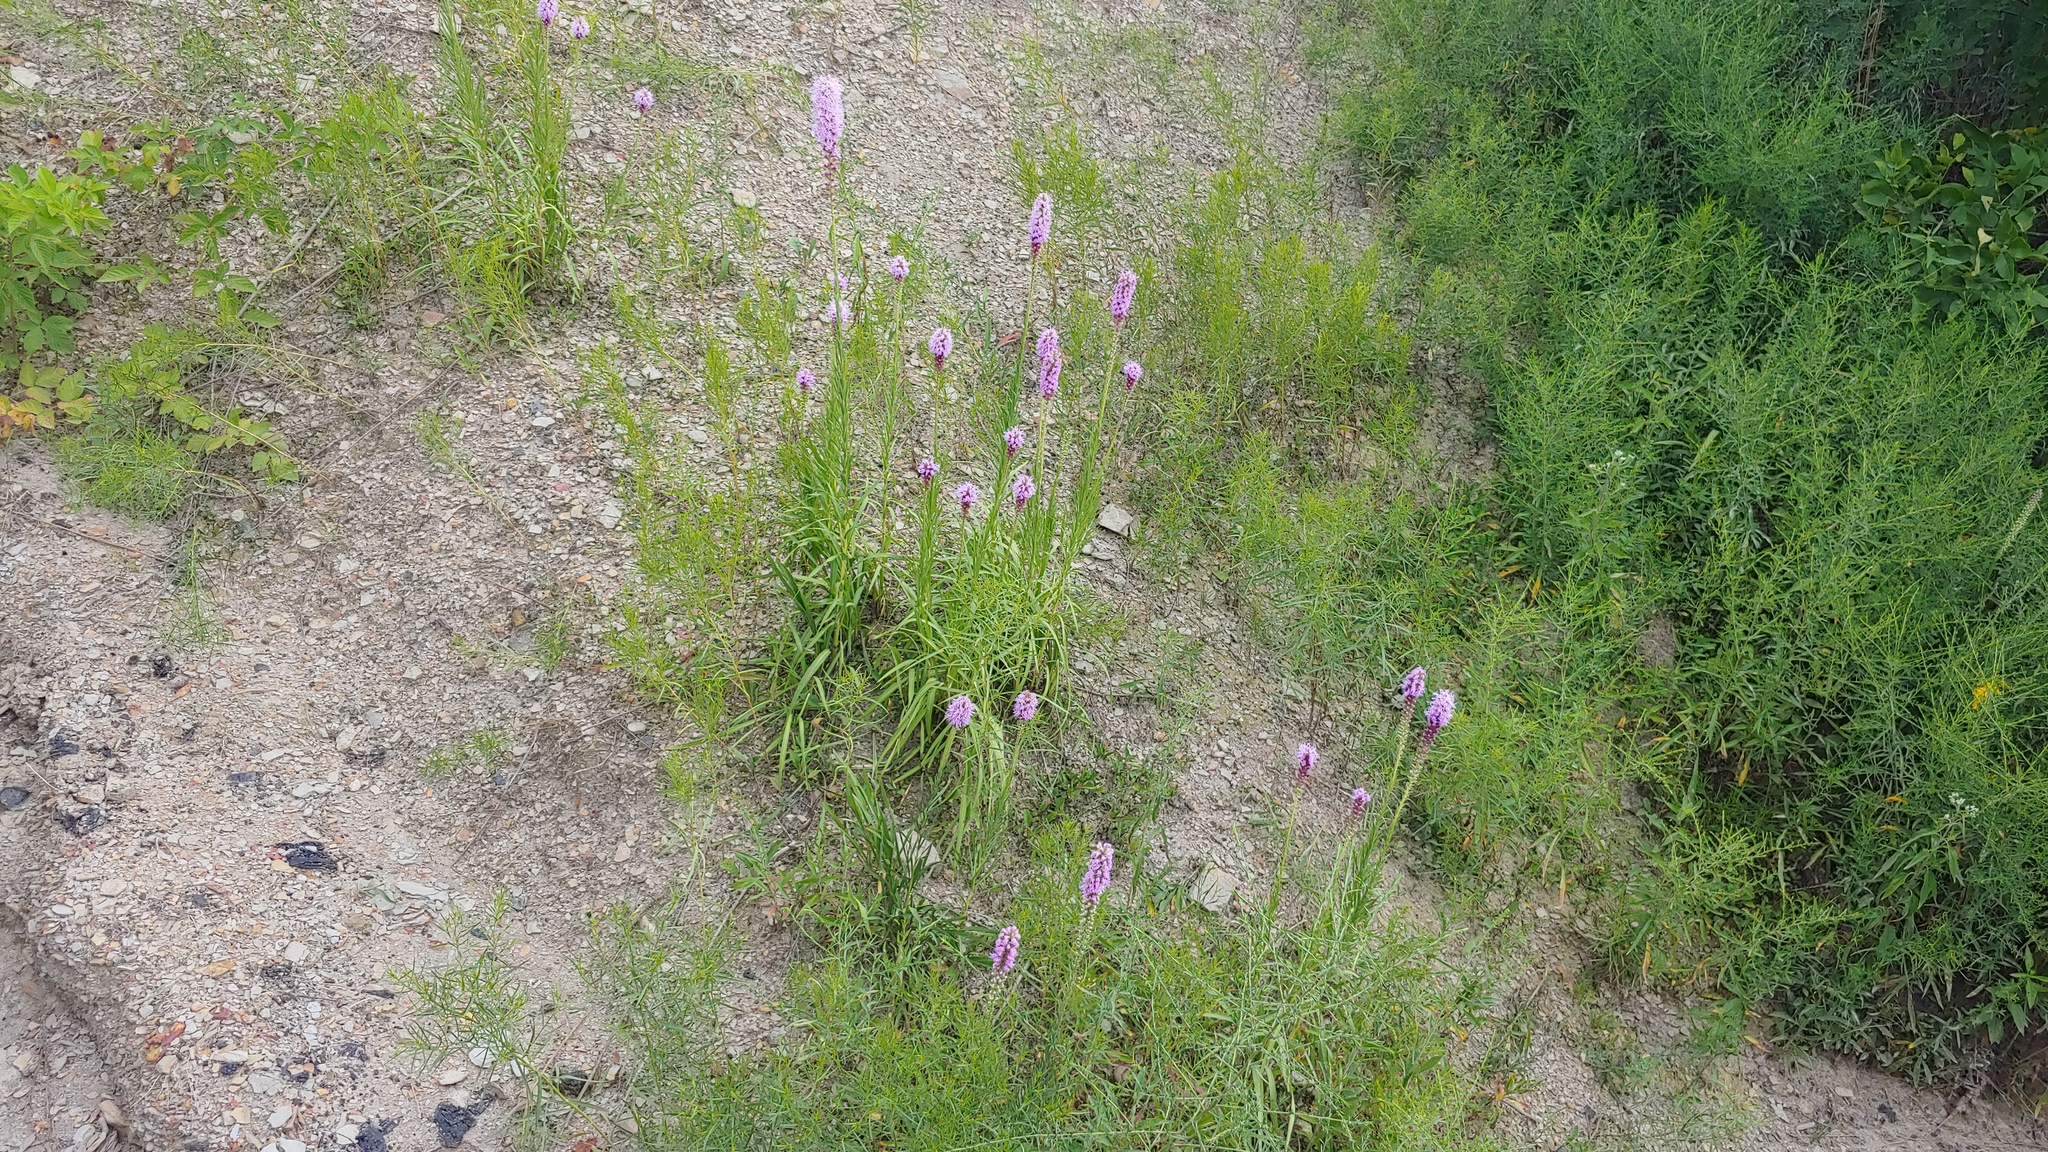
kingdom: Plantae
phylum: Tracheophyta
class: Magnoliopsida
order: Asterales
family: Asteraceae
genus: Liatris
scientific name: Liatris pycnostachya
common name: Cattail gayfeather
